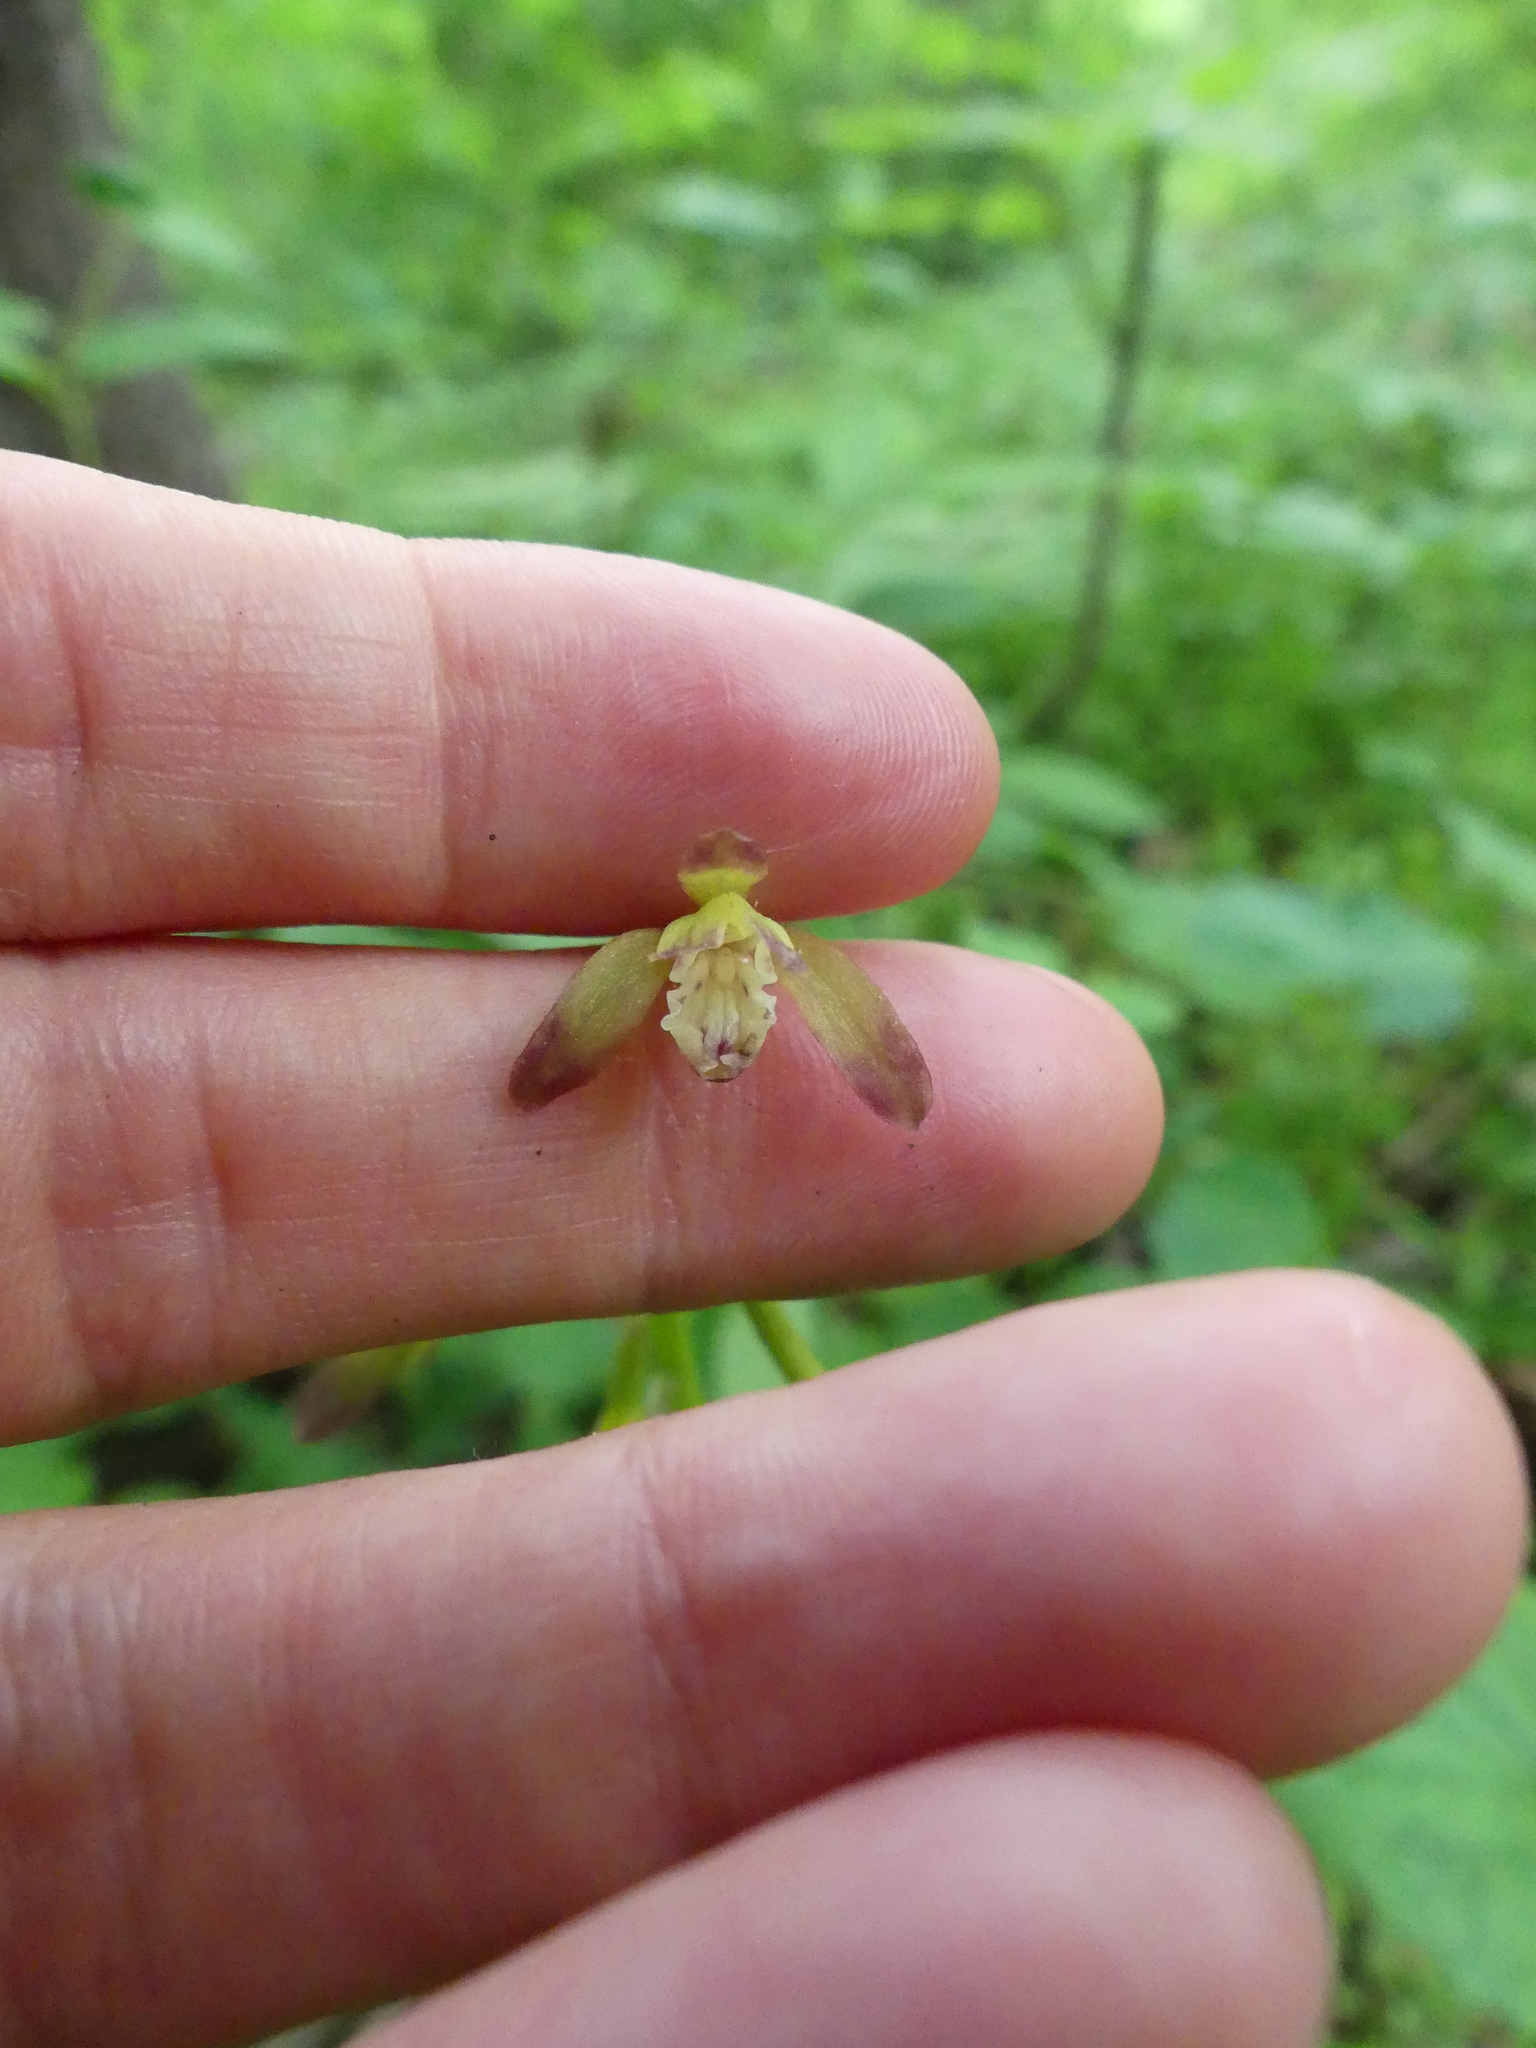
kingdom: Plantae
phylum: Tracheophyta
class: Liliopsida
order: Asparagales
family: Orchidaceae
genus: Aplectrum
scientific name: Aplectrum hyemale
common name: Adam-and-eve
